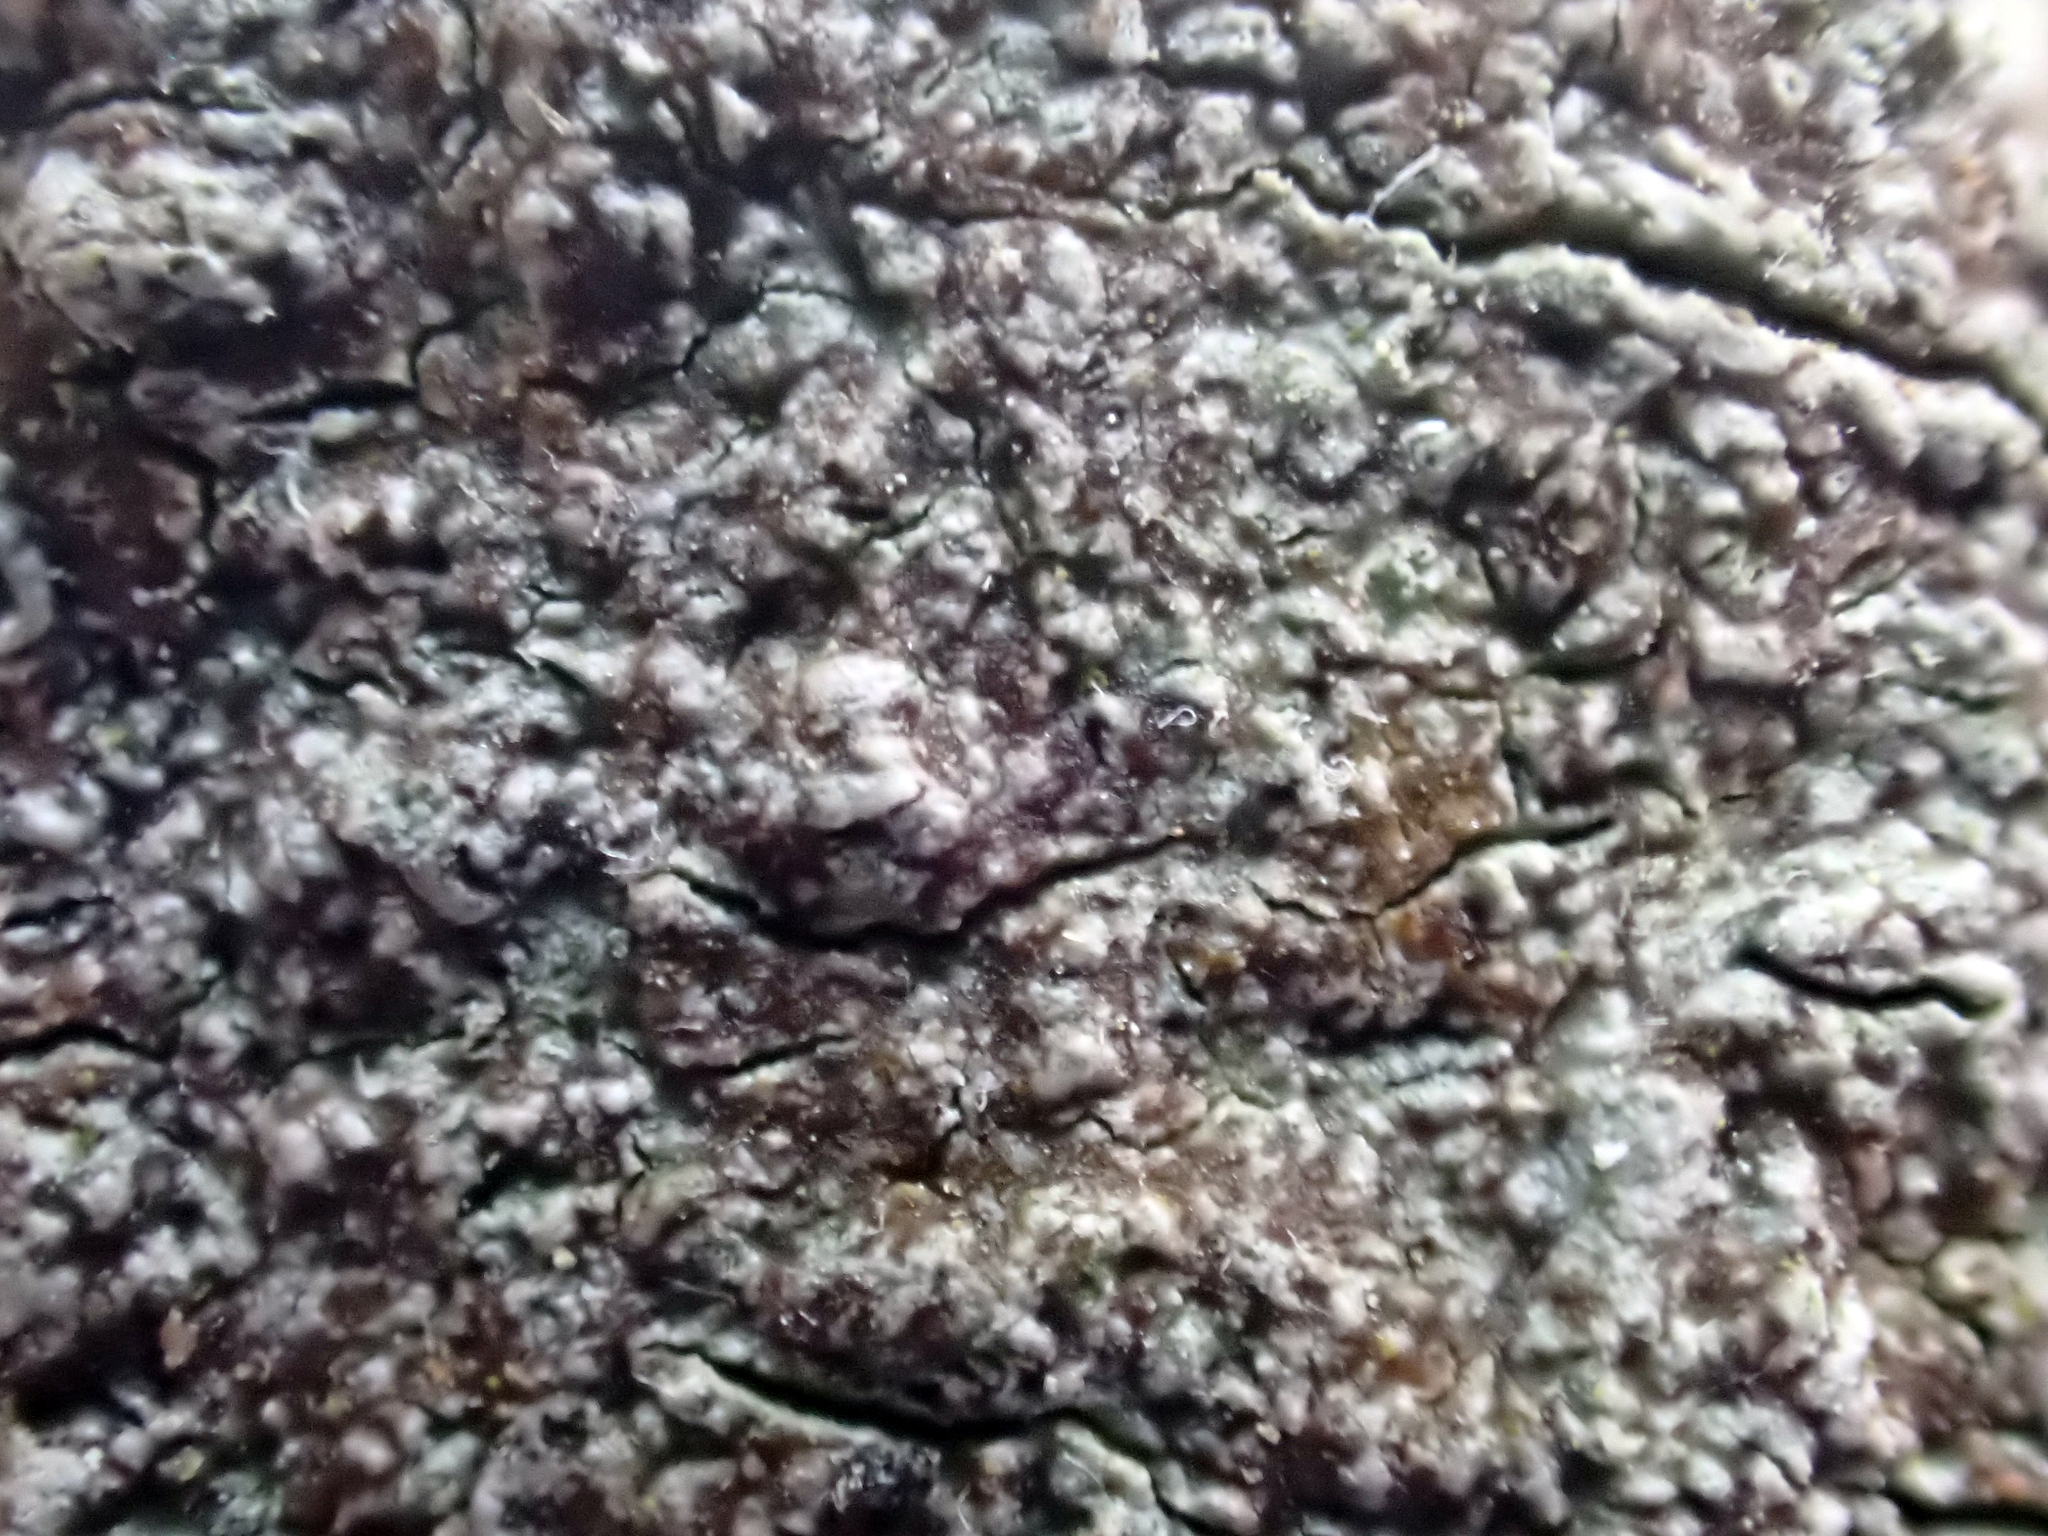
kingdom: Fungi
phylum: Ascomycota
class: Arthoniomycetes
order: Arthoniales
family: Arthoniaceae
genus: Arthonia
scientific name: Arthonia peraffinis
